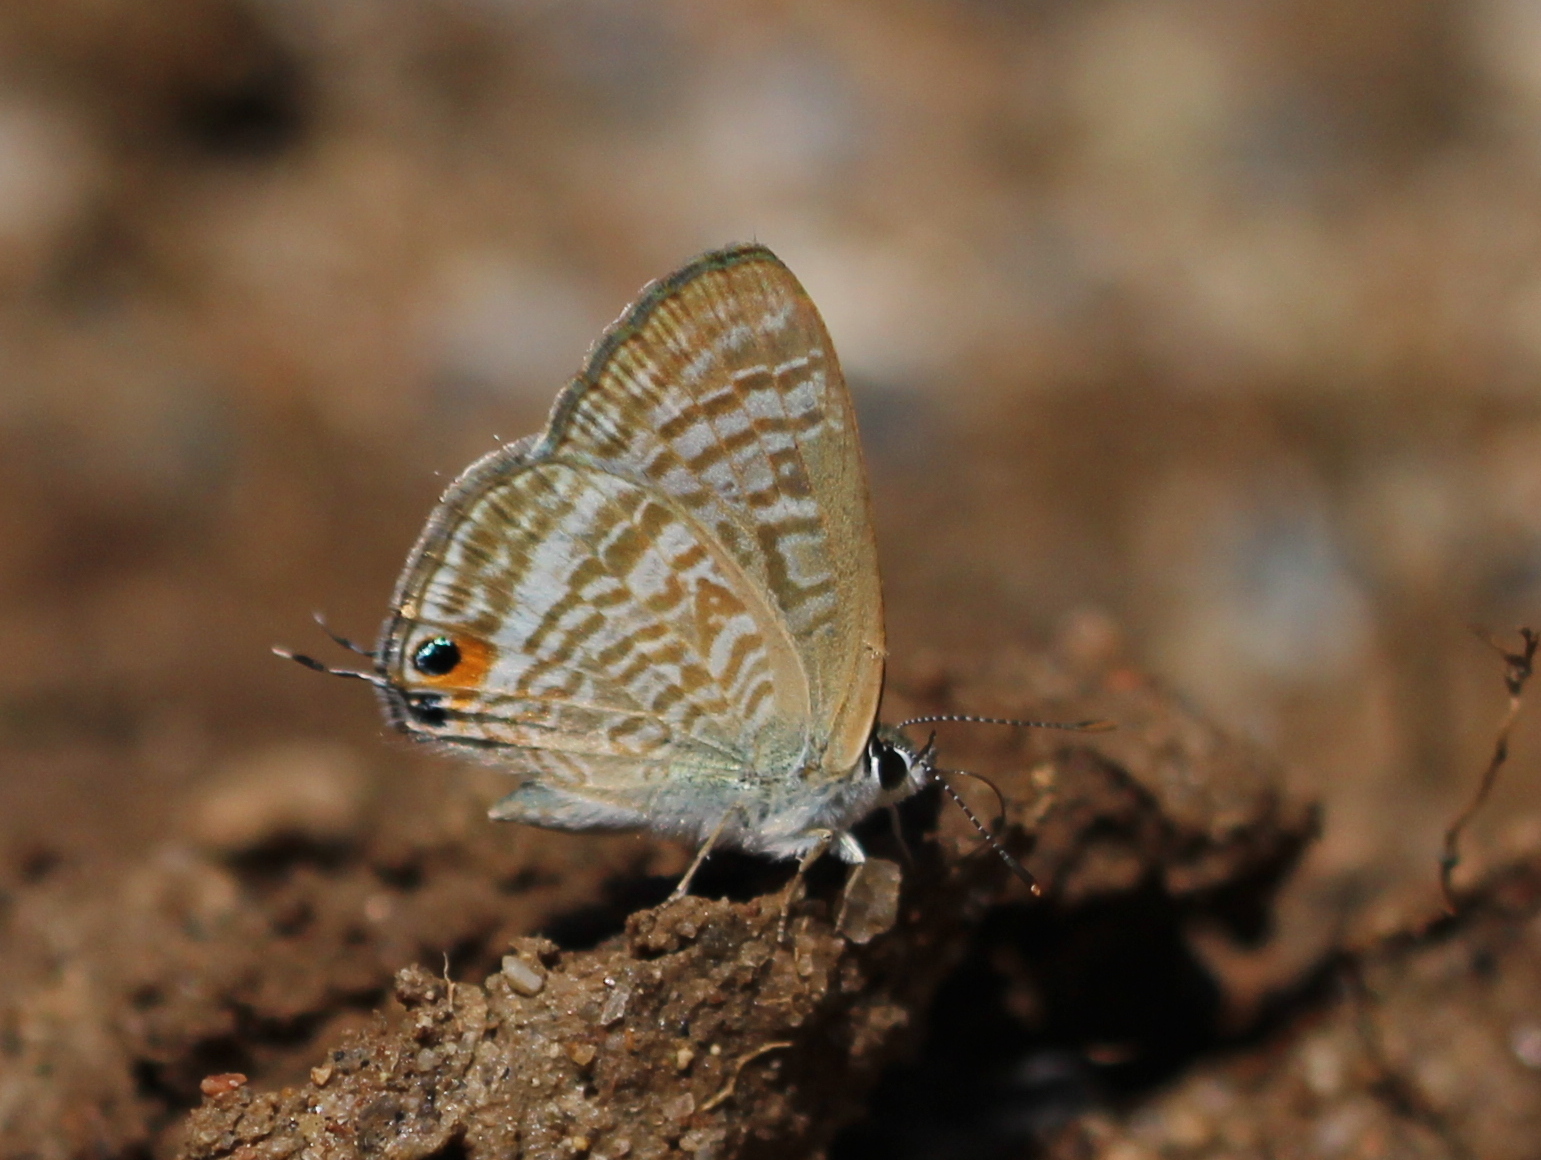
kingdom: Animalia
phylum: Arthropoda
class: Insecta
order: Lepidoptera
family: Lycaenidae
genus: Lampides
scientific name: Lampides boeticus
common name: Long-tailed blue
